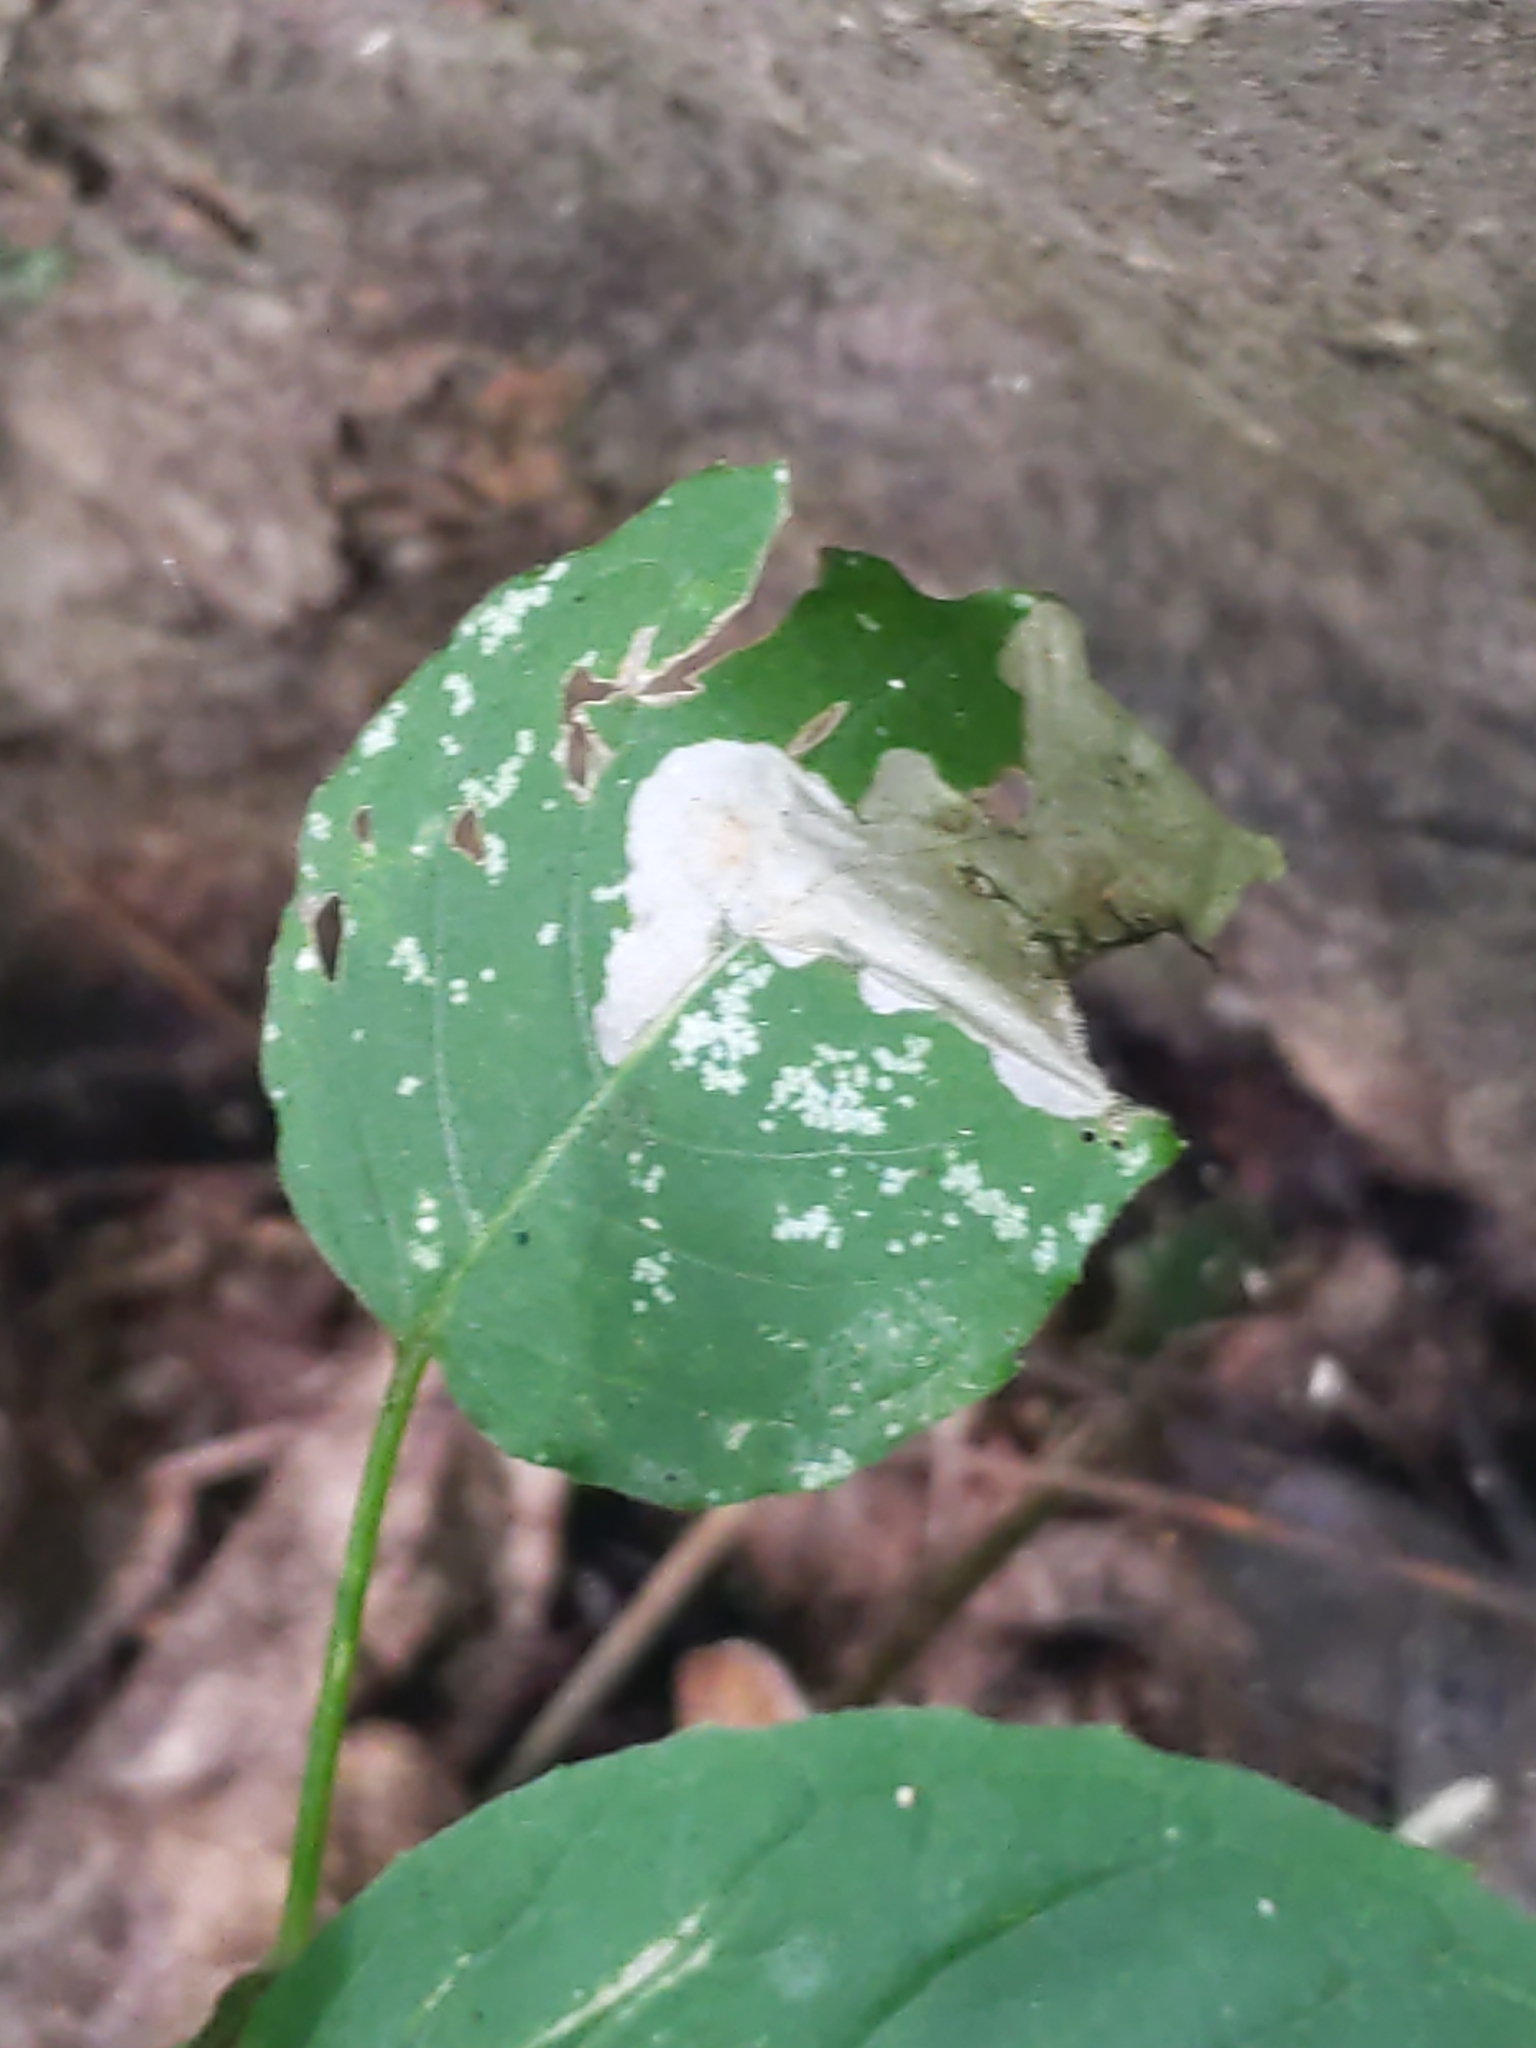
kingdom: Animalia
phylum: Arthropoda
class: Insecta
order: Lepidoptera
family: Momphidae
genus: Mompha
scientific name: Mompha terminella
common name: Enchanters cosmet
